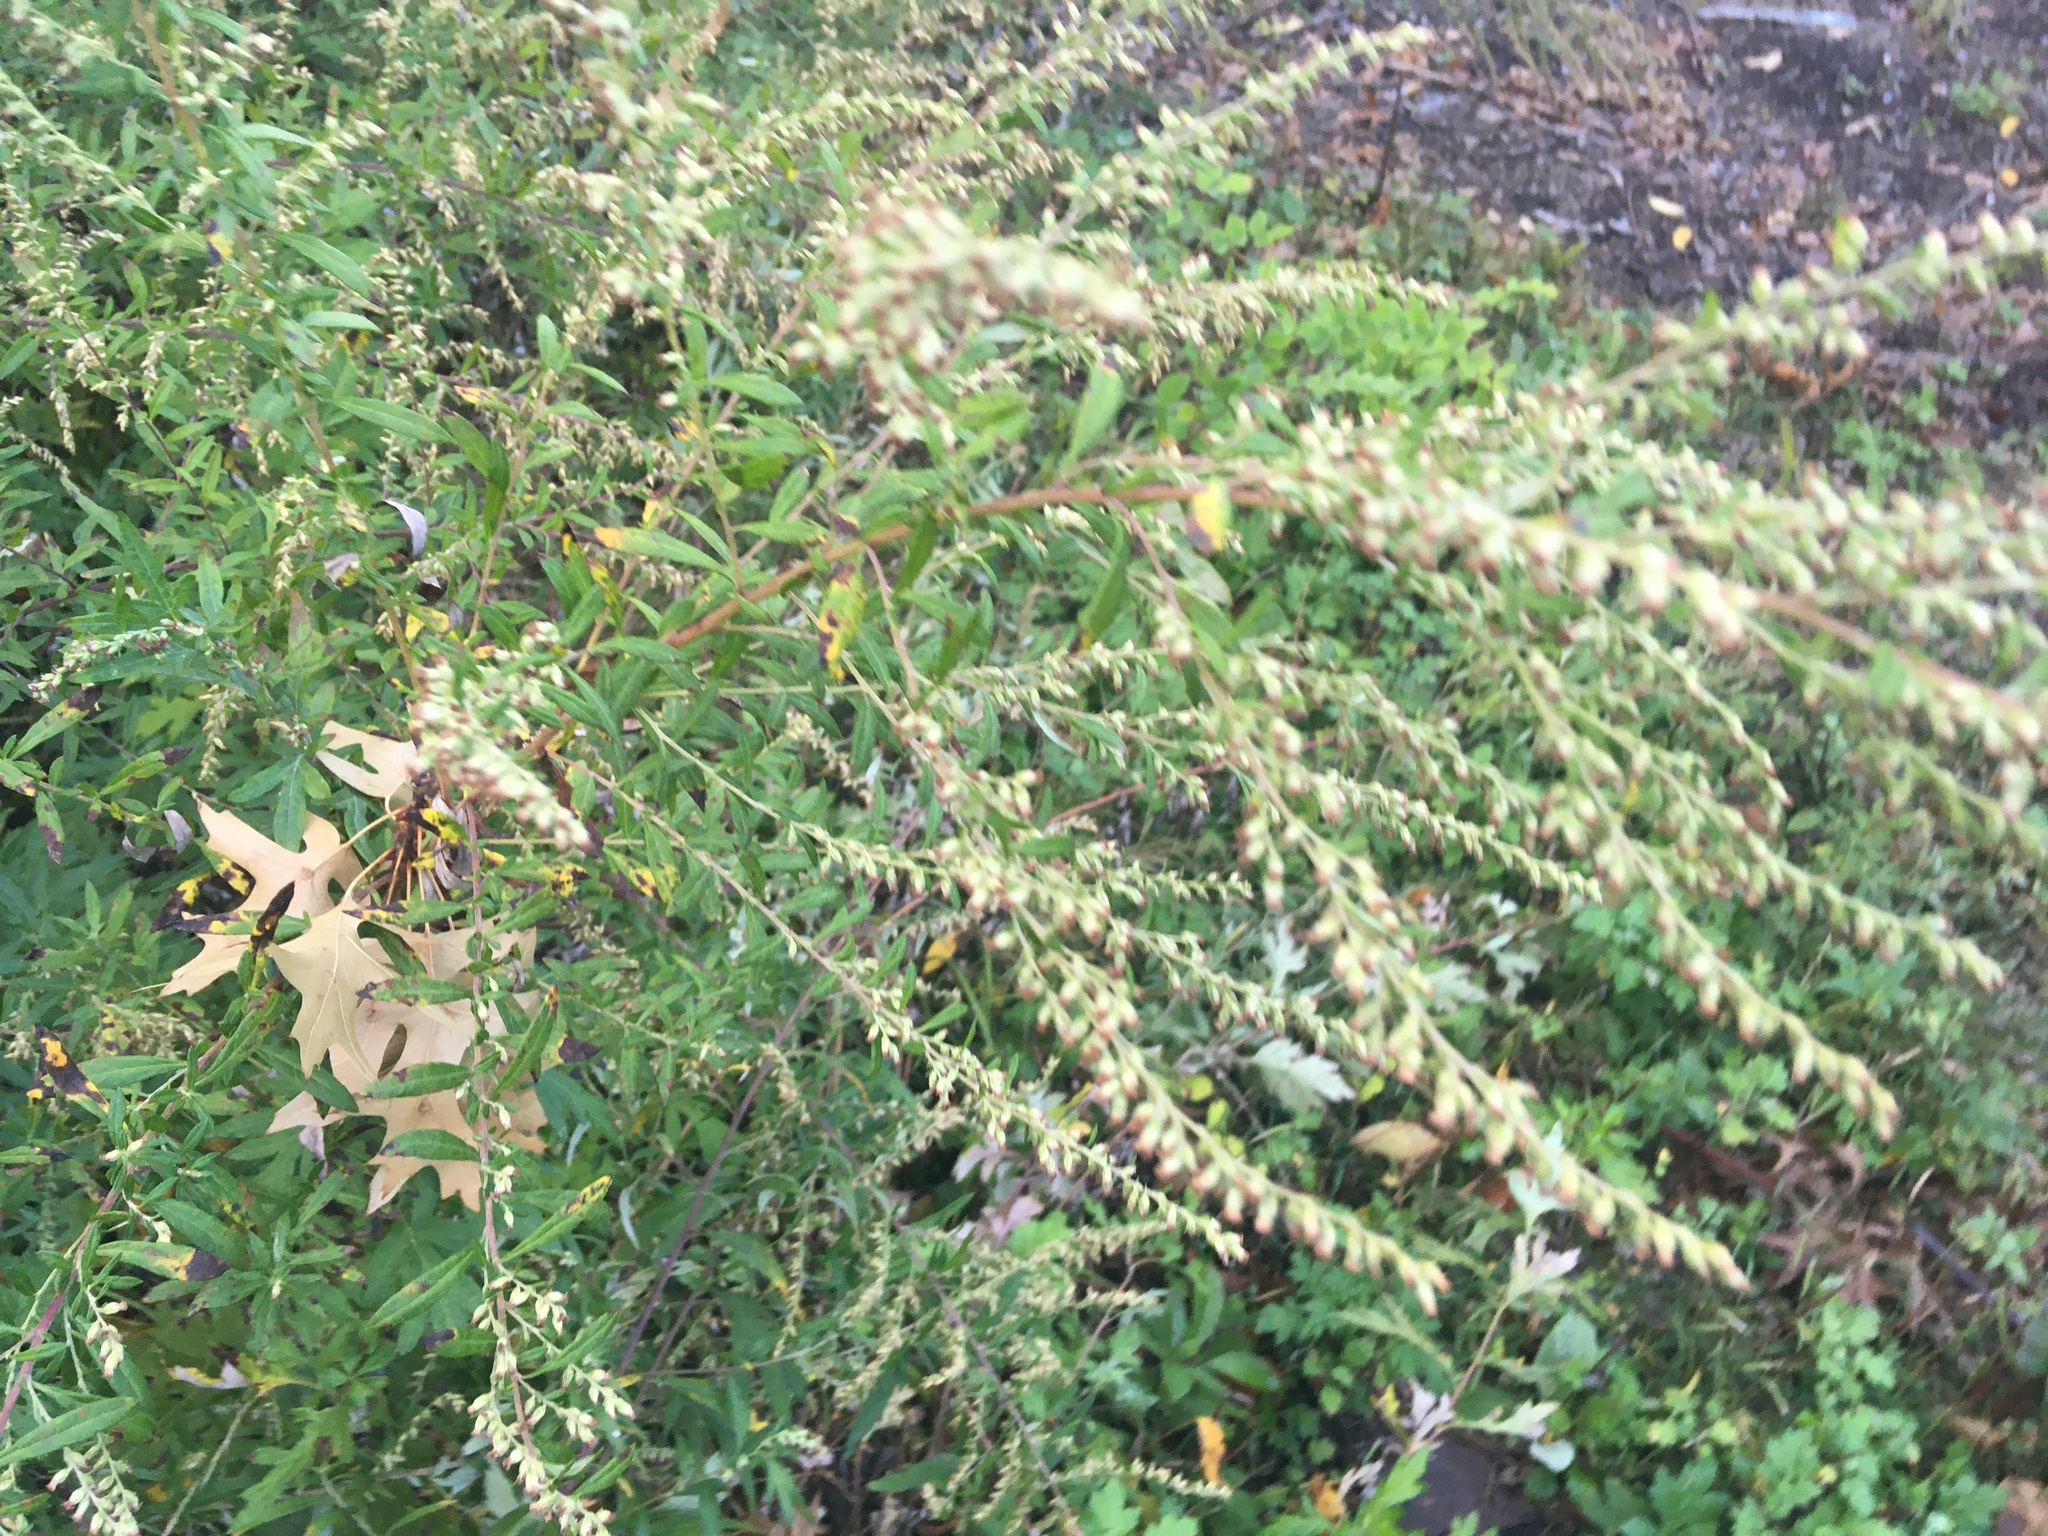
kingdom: Plantae
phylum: Tracheophyta
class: Magnoliopsida
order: Asterales
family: Asteraceae
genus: Artemisia
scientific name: Artemisia vulgaris
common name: Mugwort
